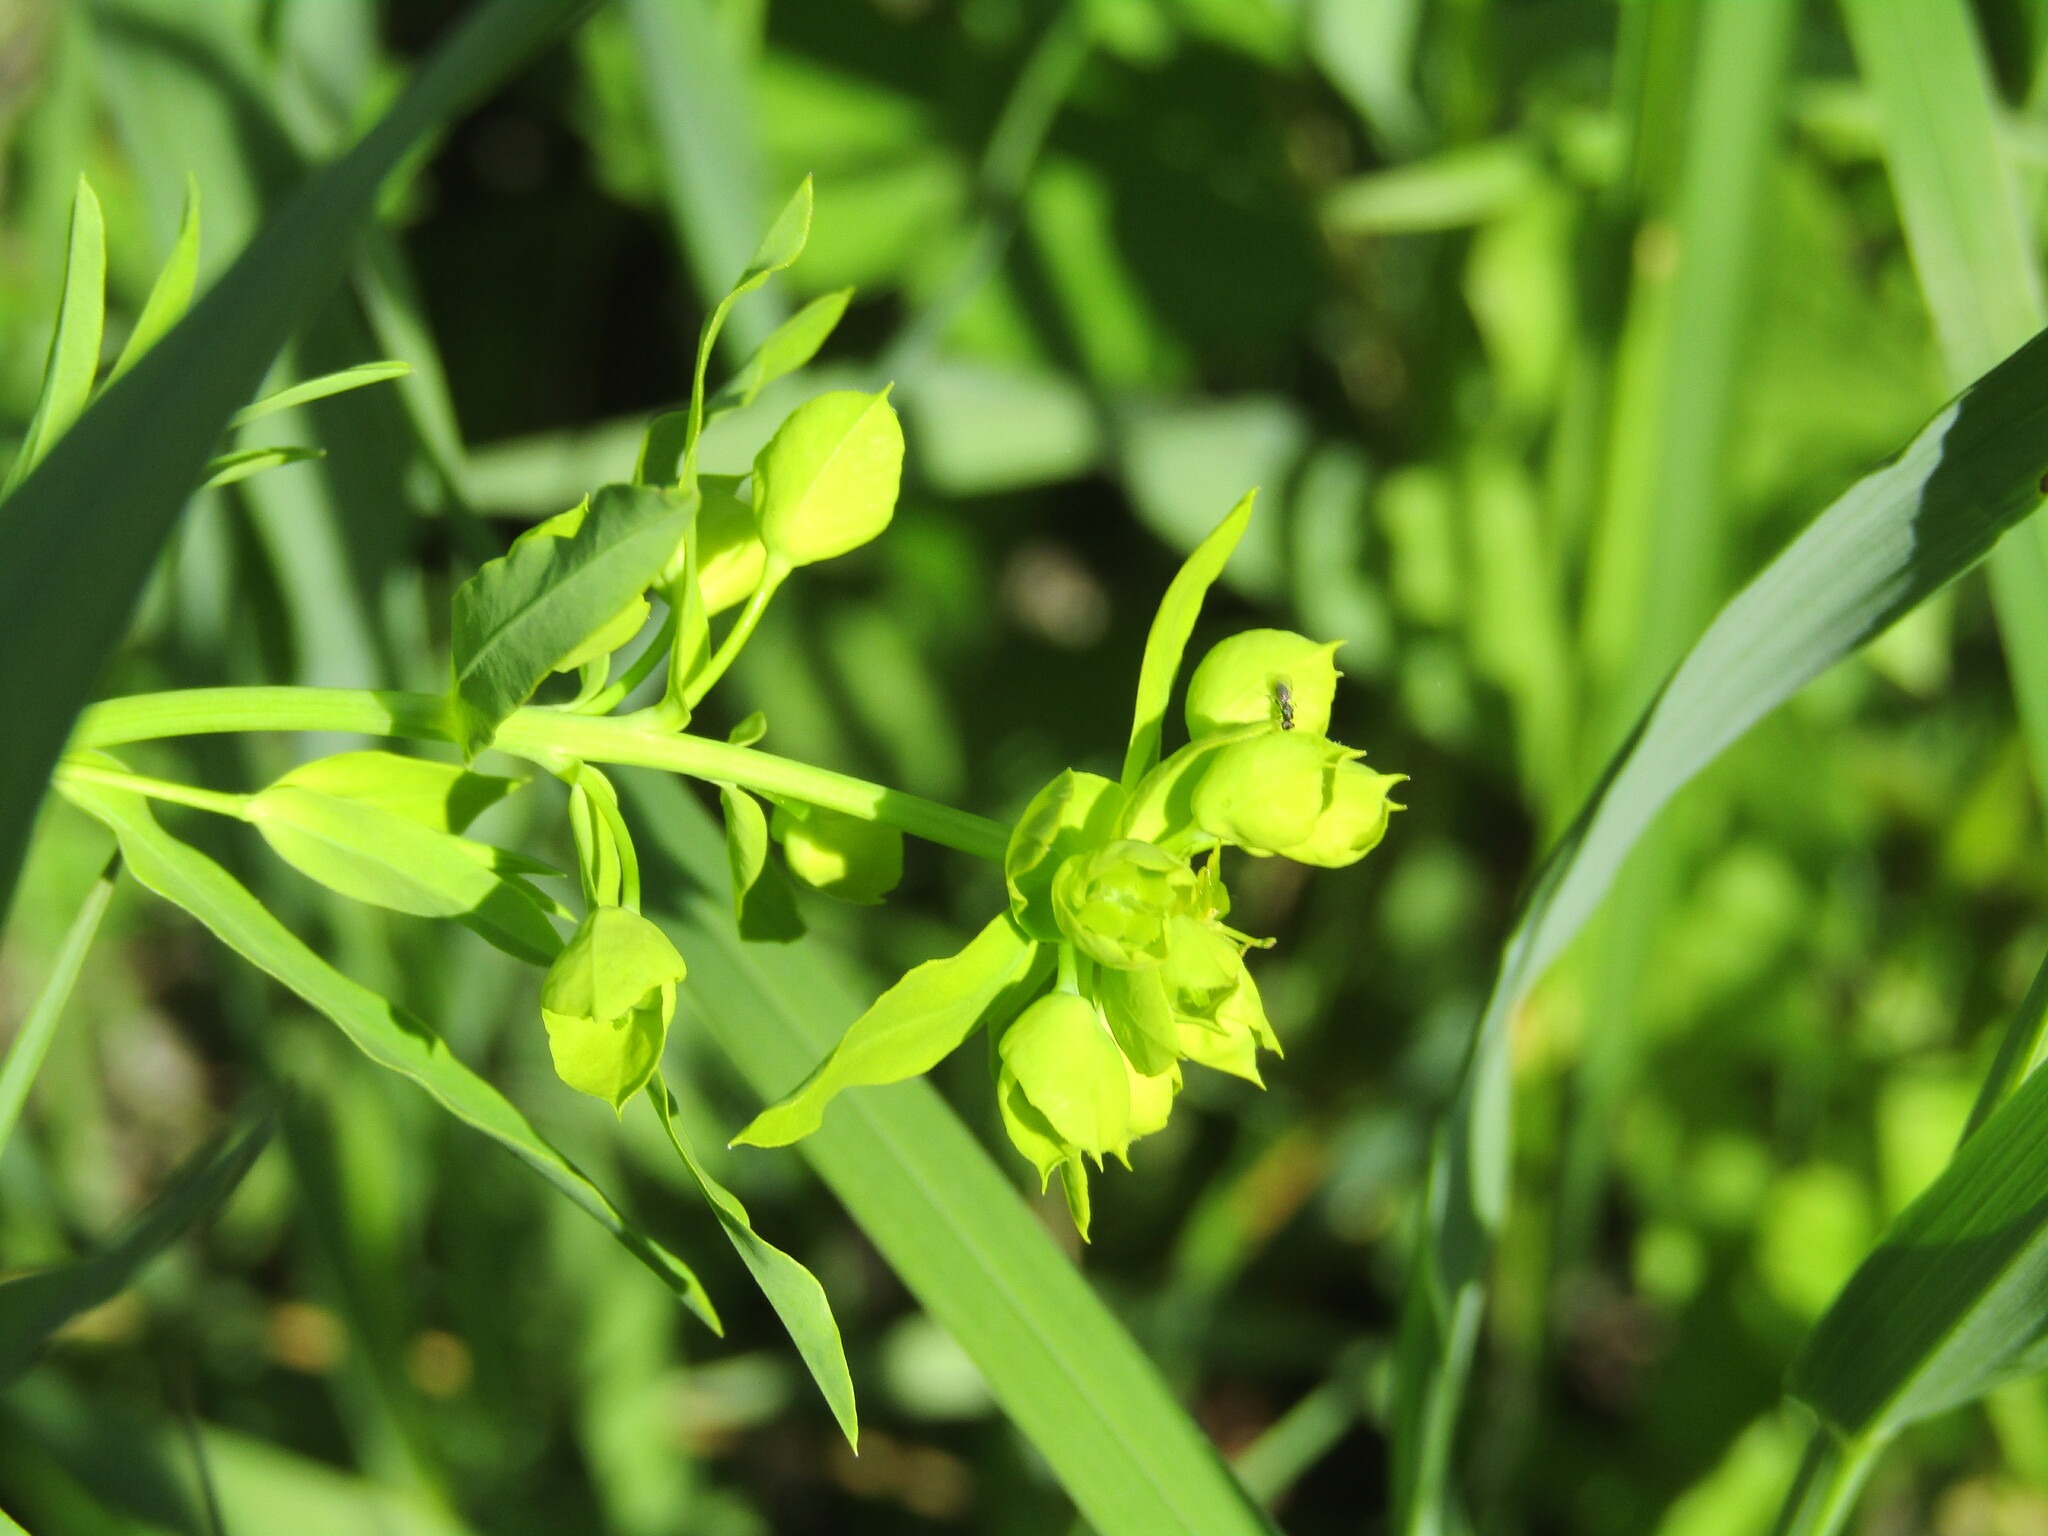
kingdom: Plantae
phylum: Tracheophyta
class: Magnoliopsida
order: Malpighiales
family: Euphorbiaceae
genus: Euphorbia
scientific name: Euphorbia virgata
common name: Leafy spurge
